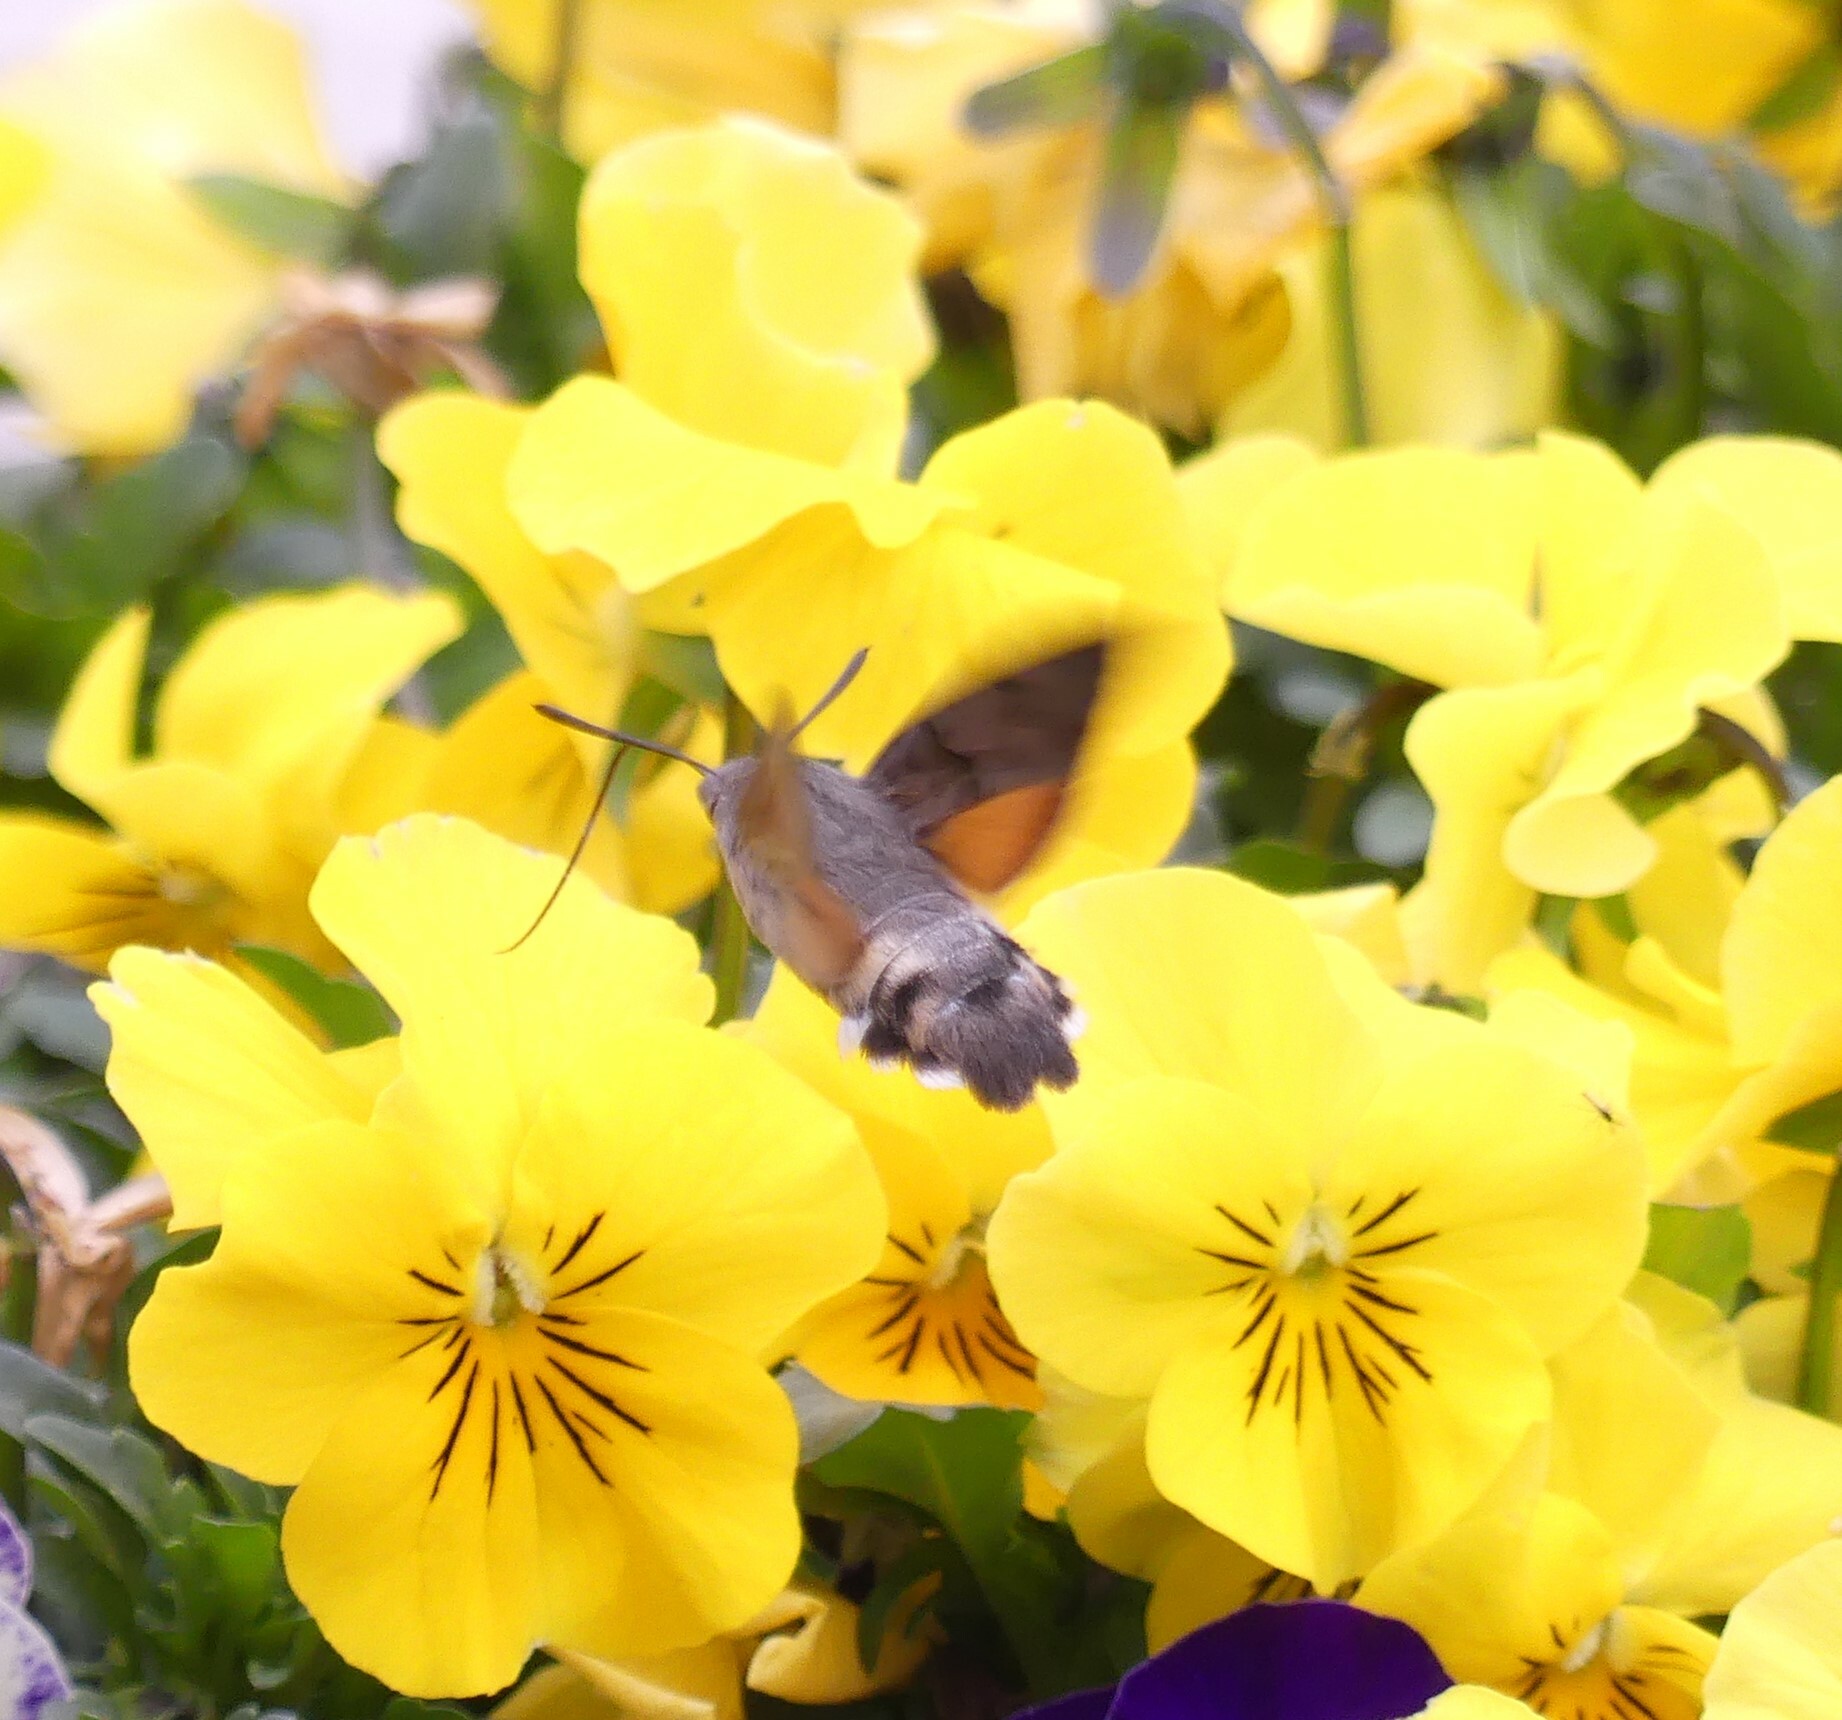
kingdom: Animalia
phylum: Arthropoda
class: Insecta
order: Lepidoptera
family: Sphingidae
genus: Macroglossum
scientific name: Macroglossum stellatarum
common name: Humming-bird hawk-moth
